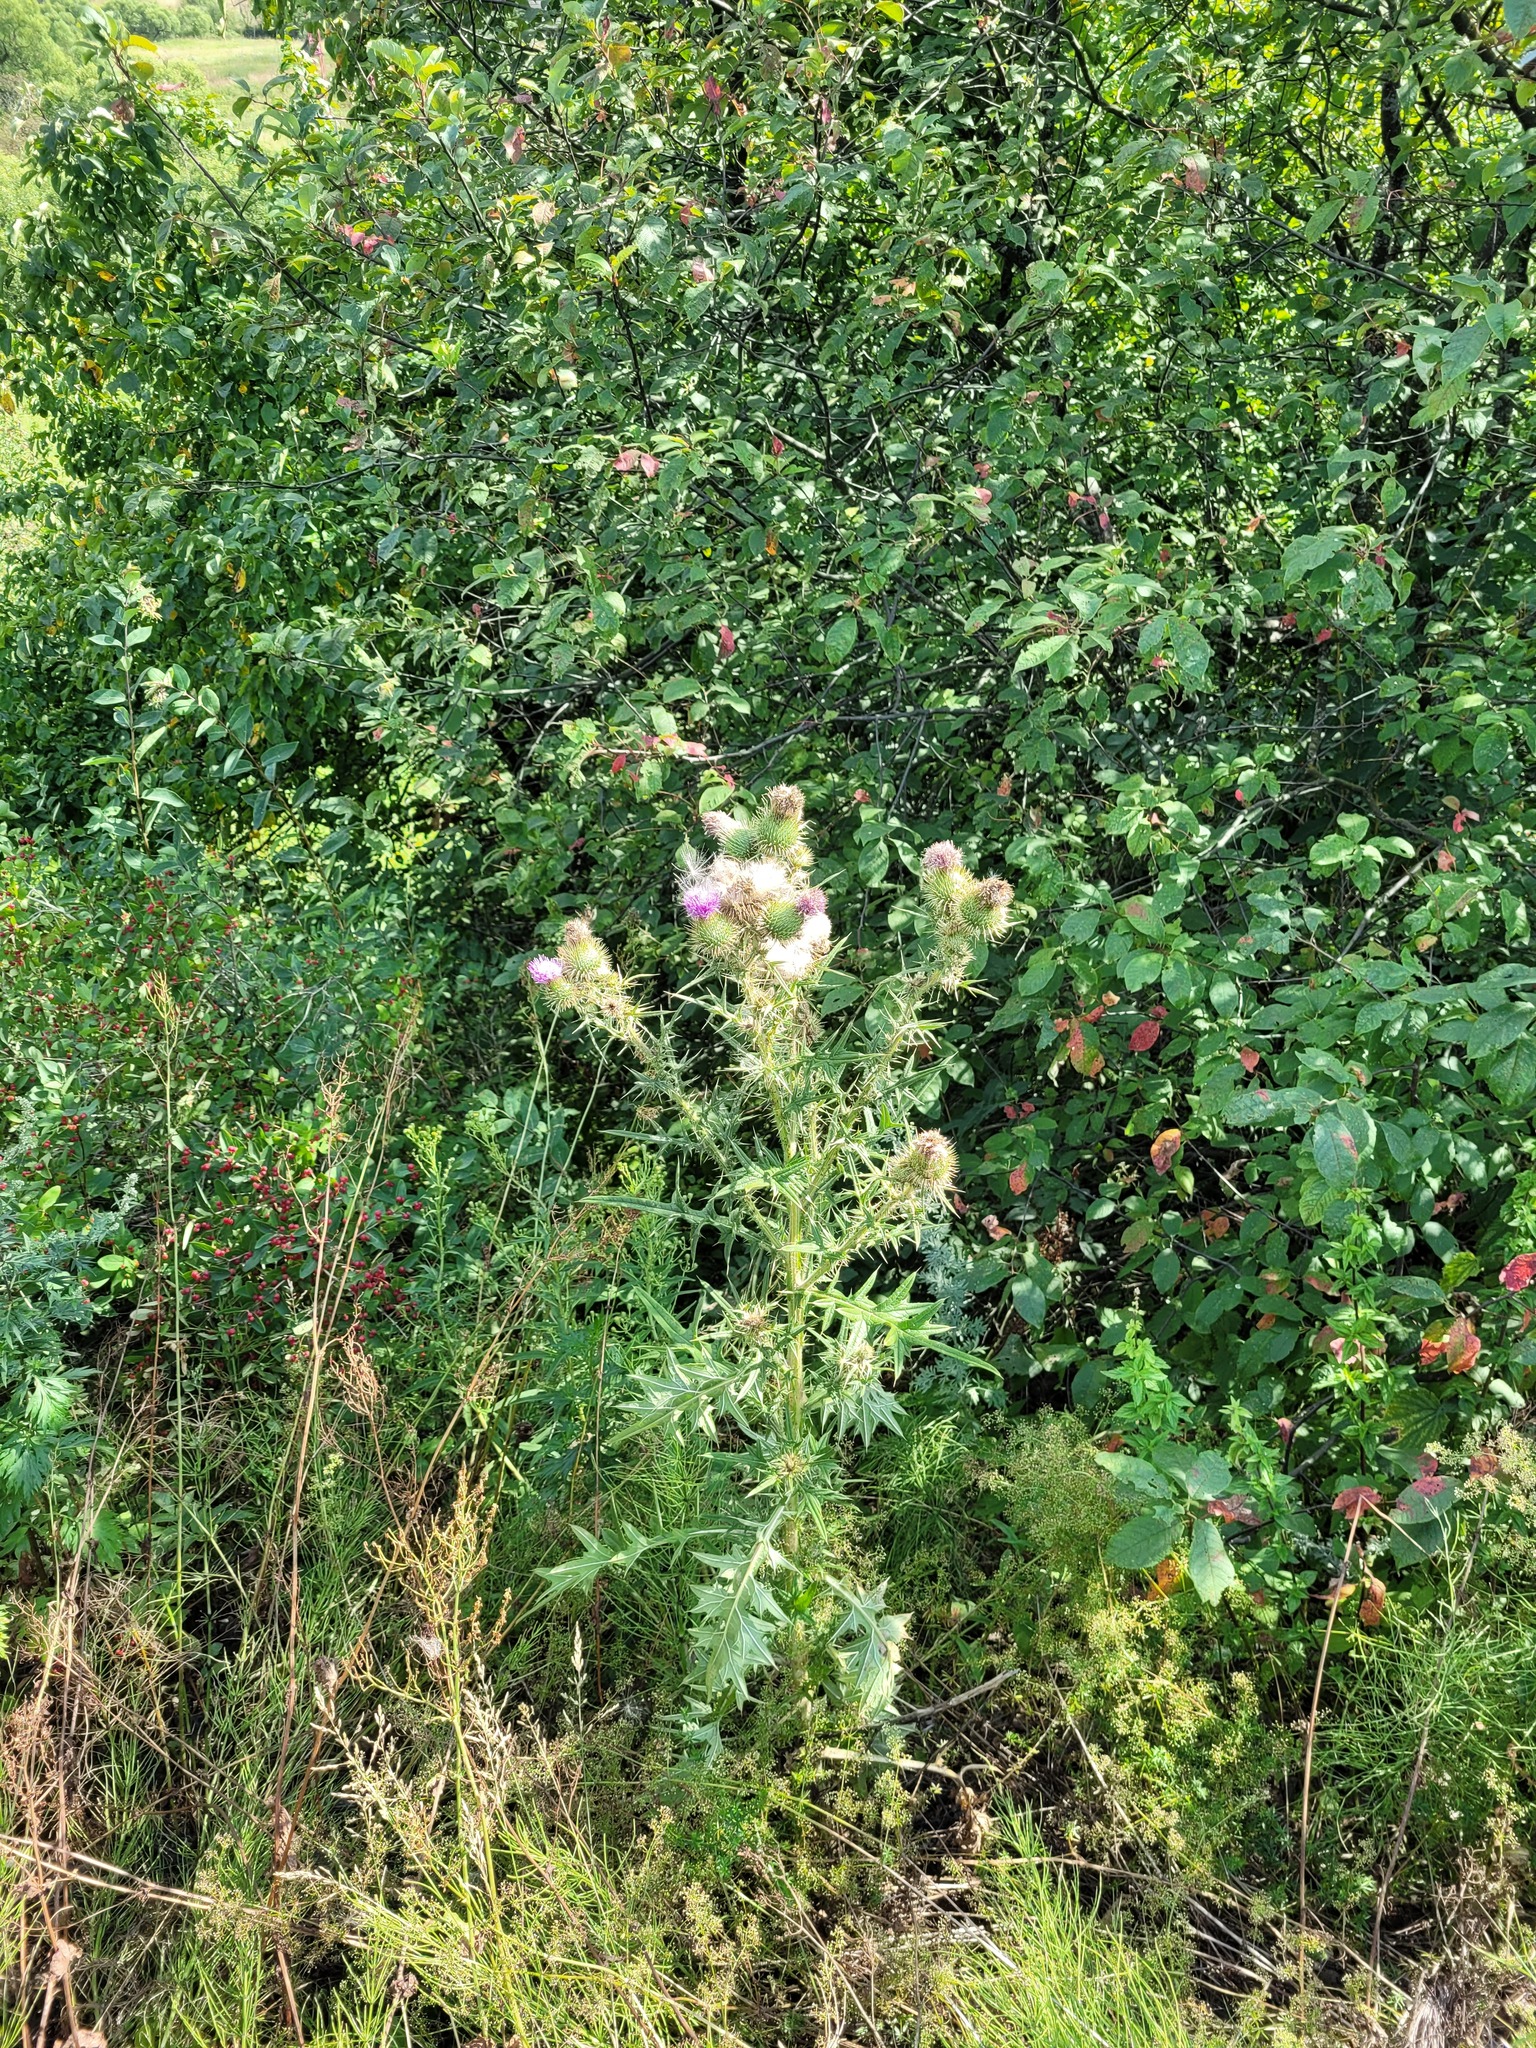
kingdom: Plantae
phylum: Tracheophyta
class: Magnoliopsida
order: Asterales
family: Asteraceae
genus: Cirsium
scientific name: Cirsium vulgare
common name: Bull thistle
